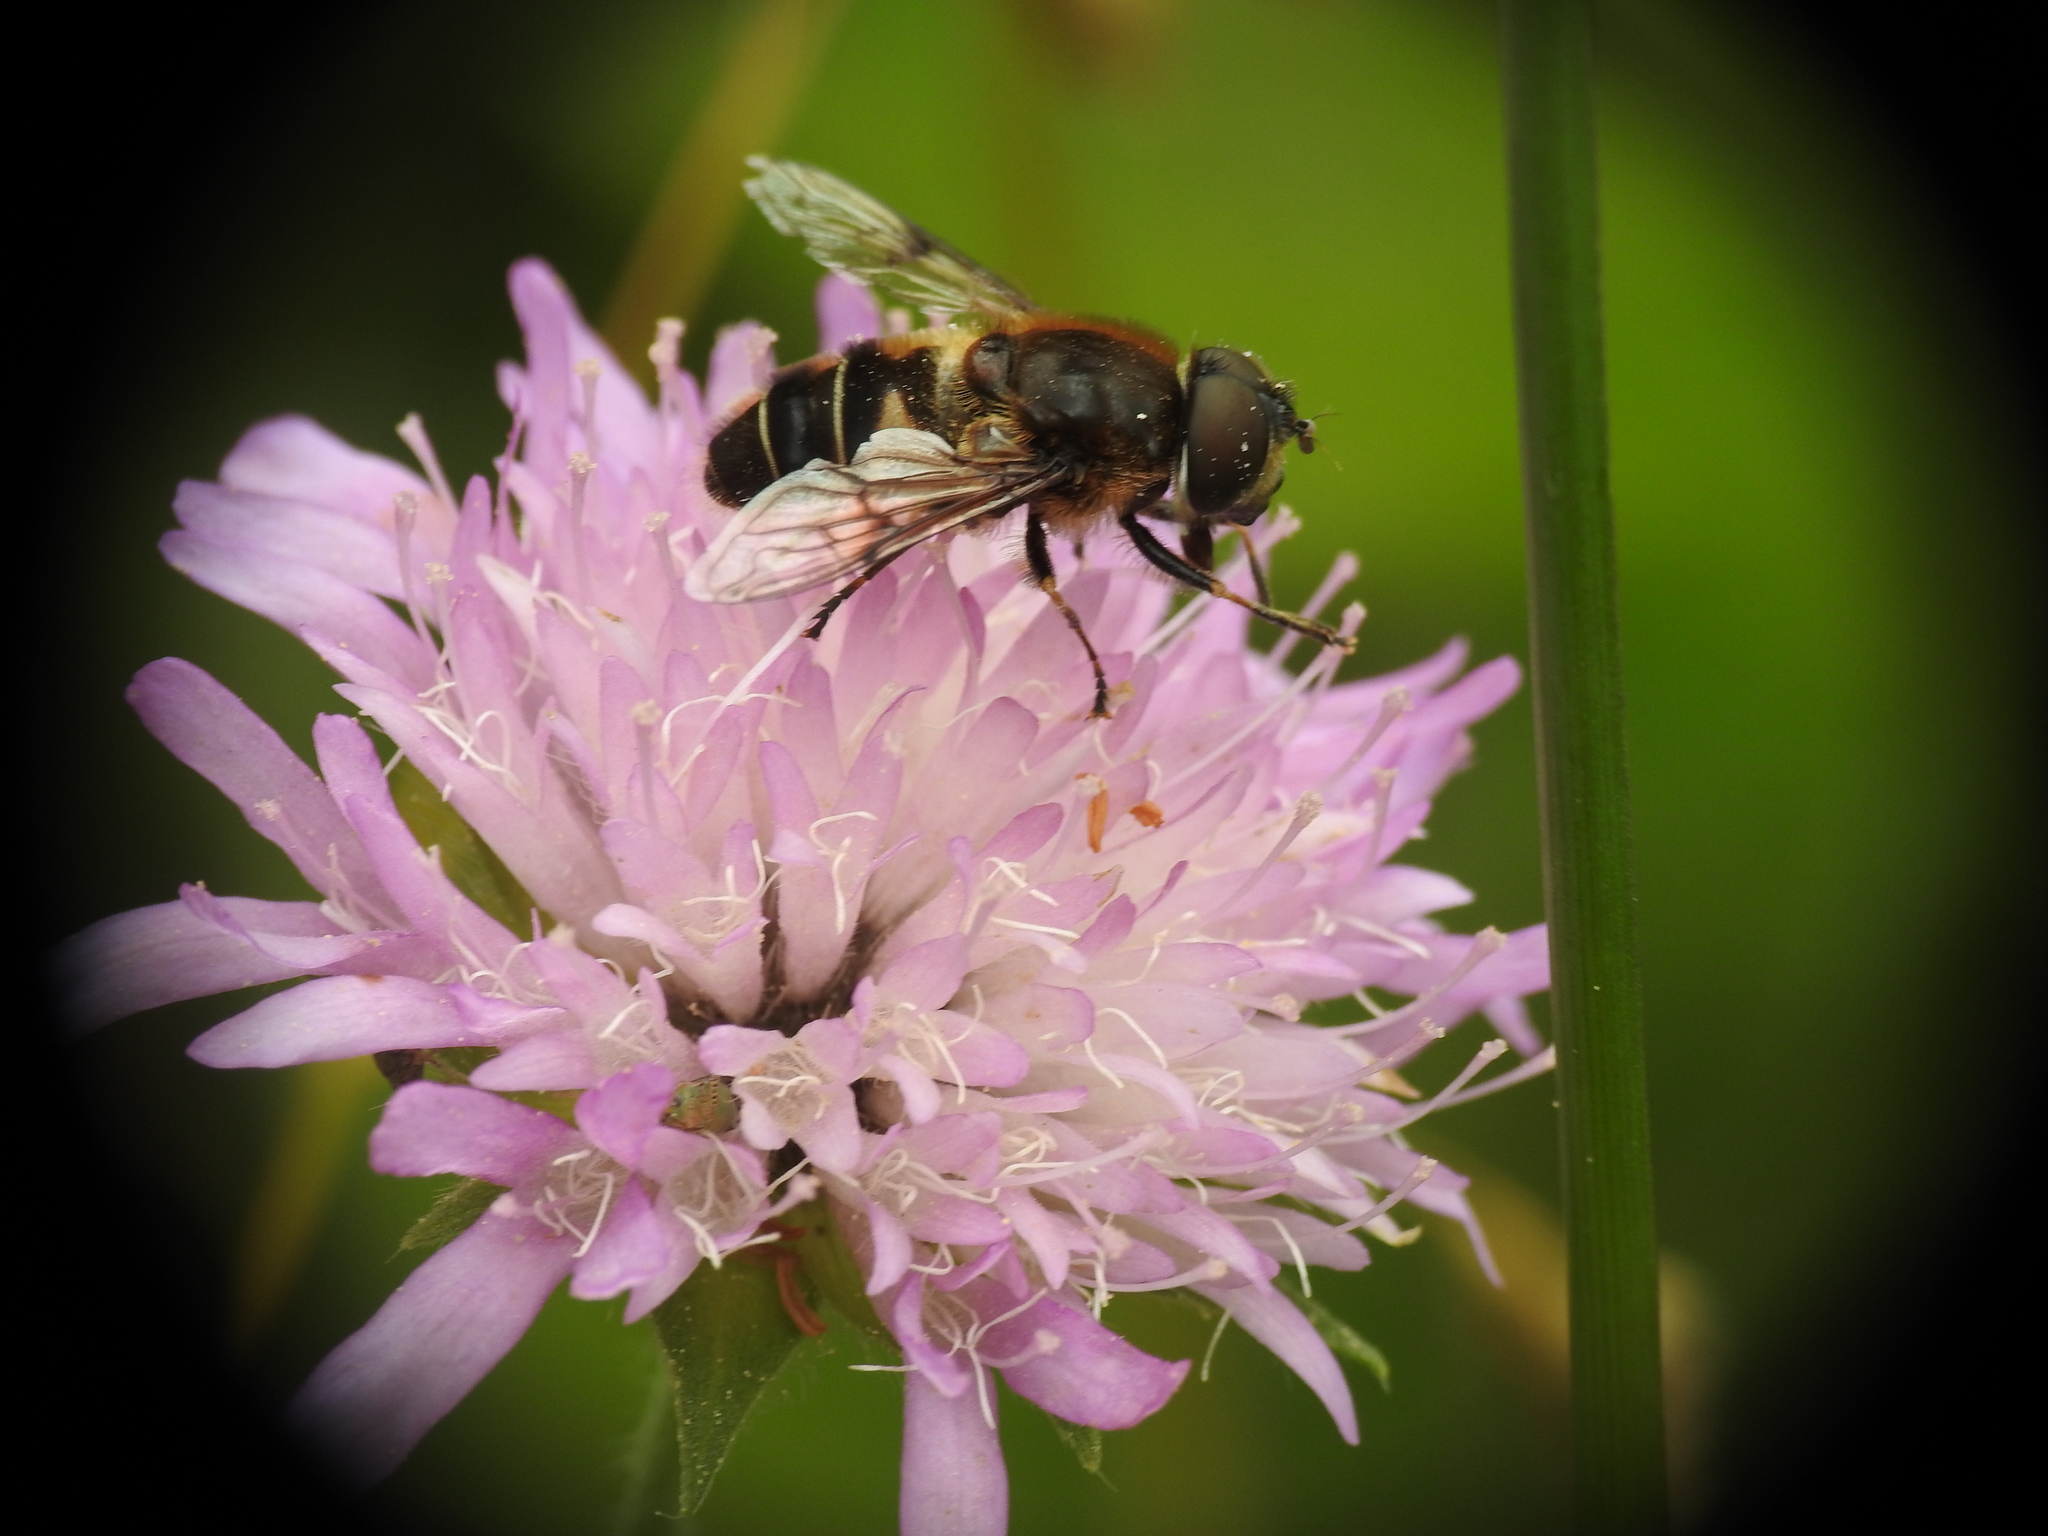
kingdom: Animalia
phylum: Arthropoda
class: Insecta
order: Diptera
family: Syrphidae
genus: Eristalis
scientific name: Eristalis rupium
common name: Hover fly
